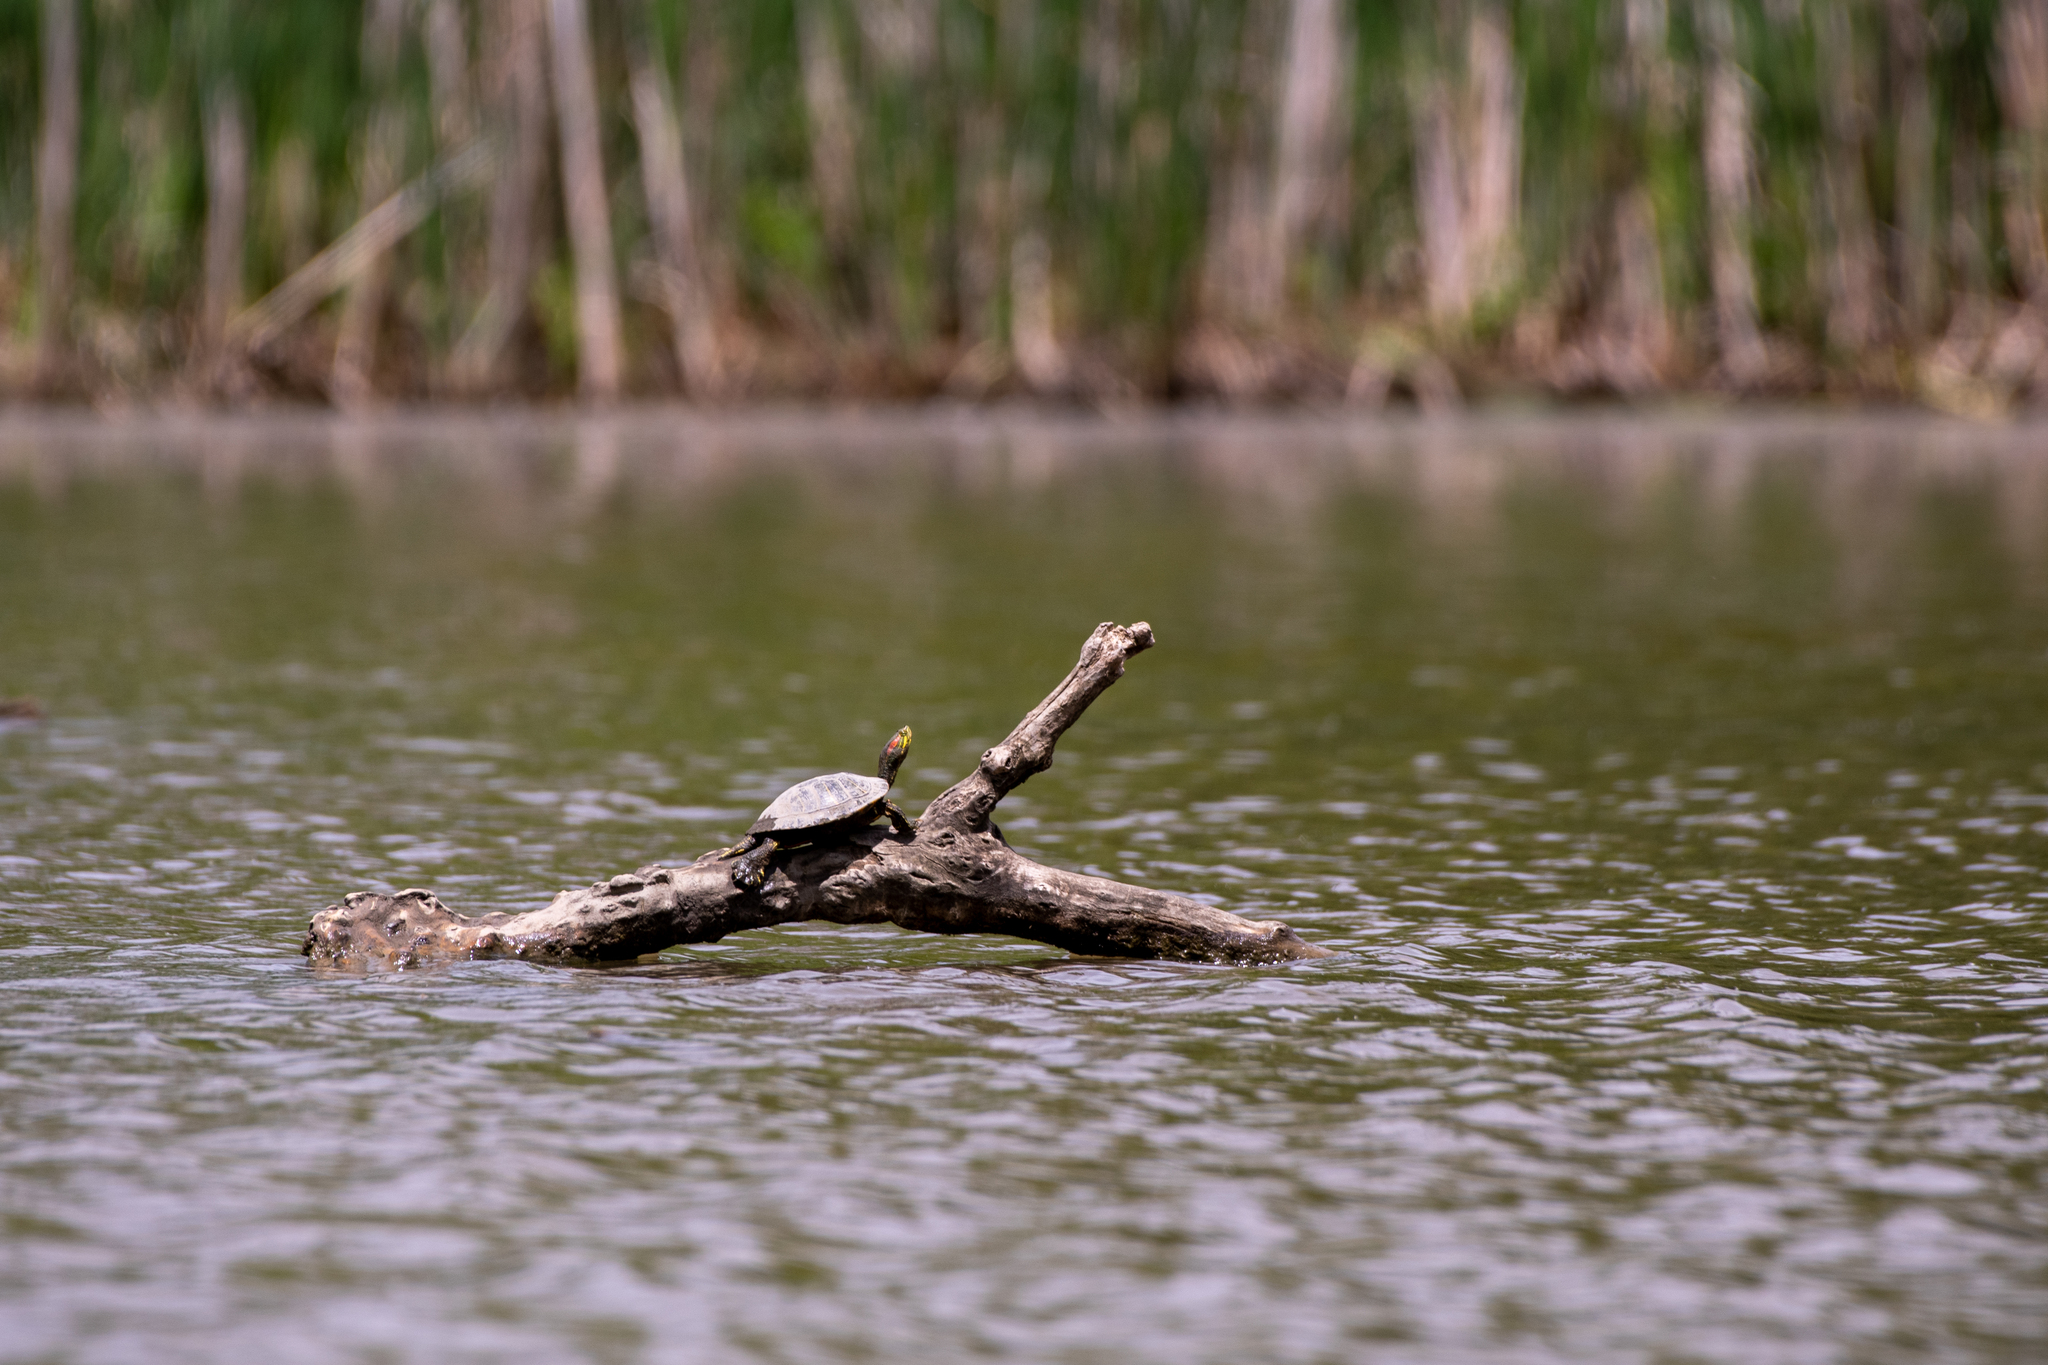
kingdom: Animalia
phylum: Chordata
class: Testudines
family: Emydidae
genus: Trachemys
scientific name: Trachemys scripta
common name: Slider
